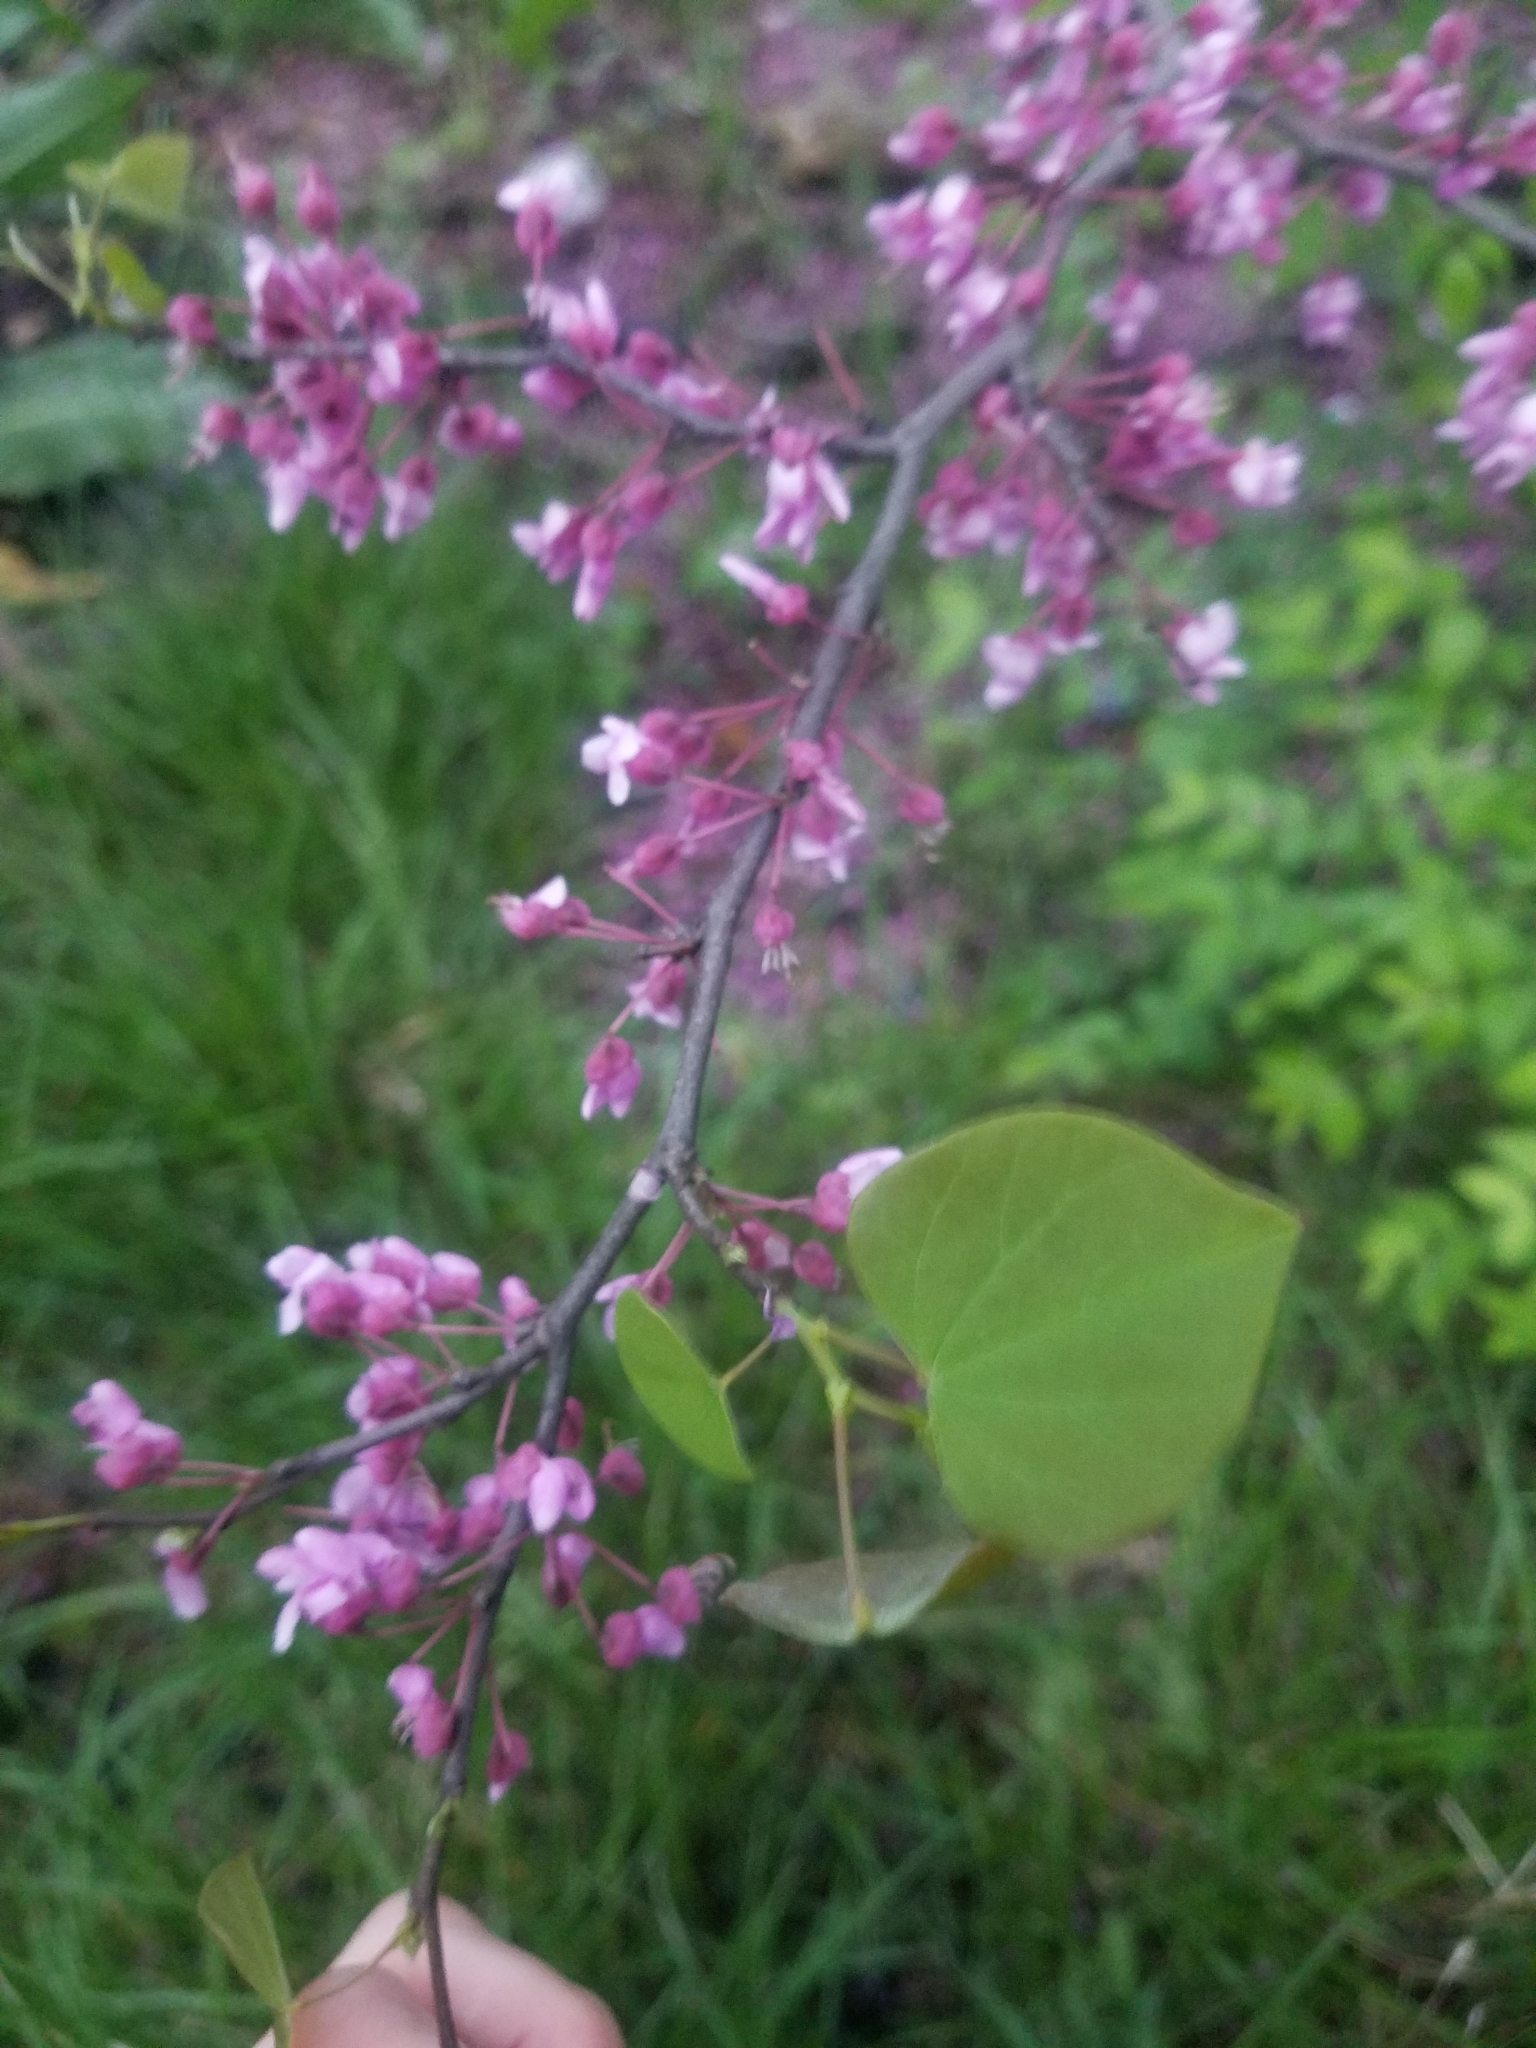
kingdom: Plantae
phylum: Tracheophyta
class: Magnoliopsida
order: Fabales
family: Fabaceae
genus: Cercis
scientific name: Cercis canadensis
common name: Eastern redbud
